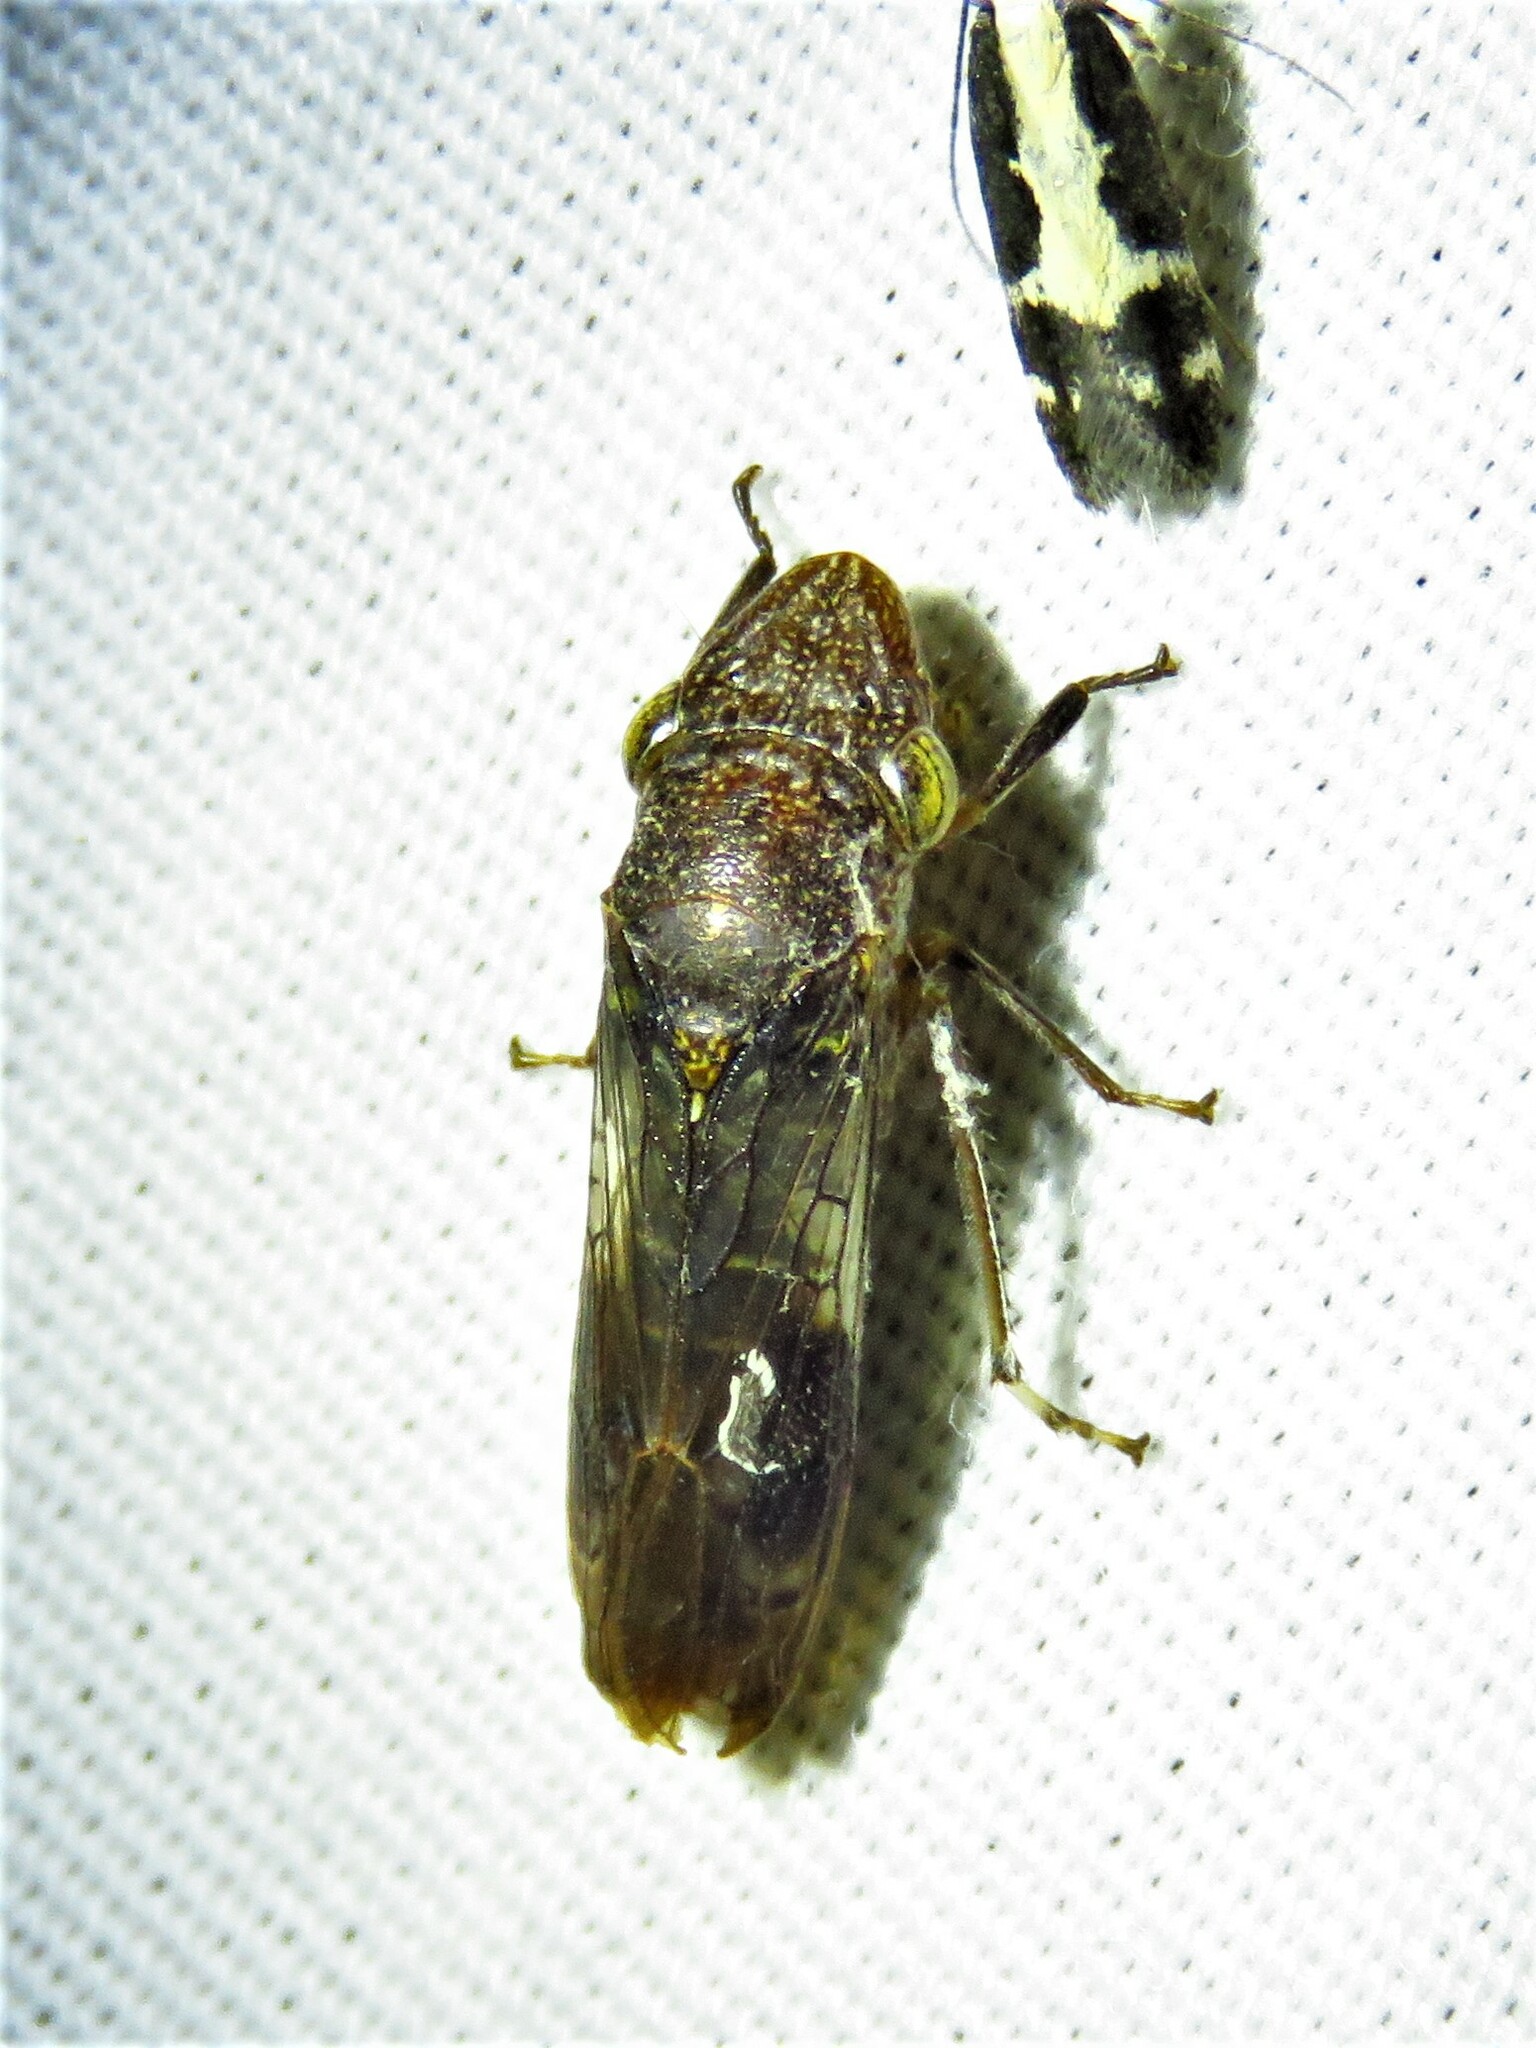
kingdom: Animalia
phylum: Arthropoda
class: Insecta
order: Hemiptera
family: Cicadellidae
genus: Homalodisca
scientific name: Homalodisca vitripennis
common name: Glassy-winged sharpshooter
